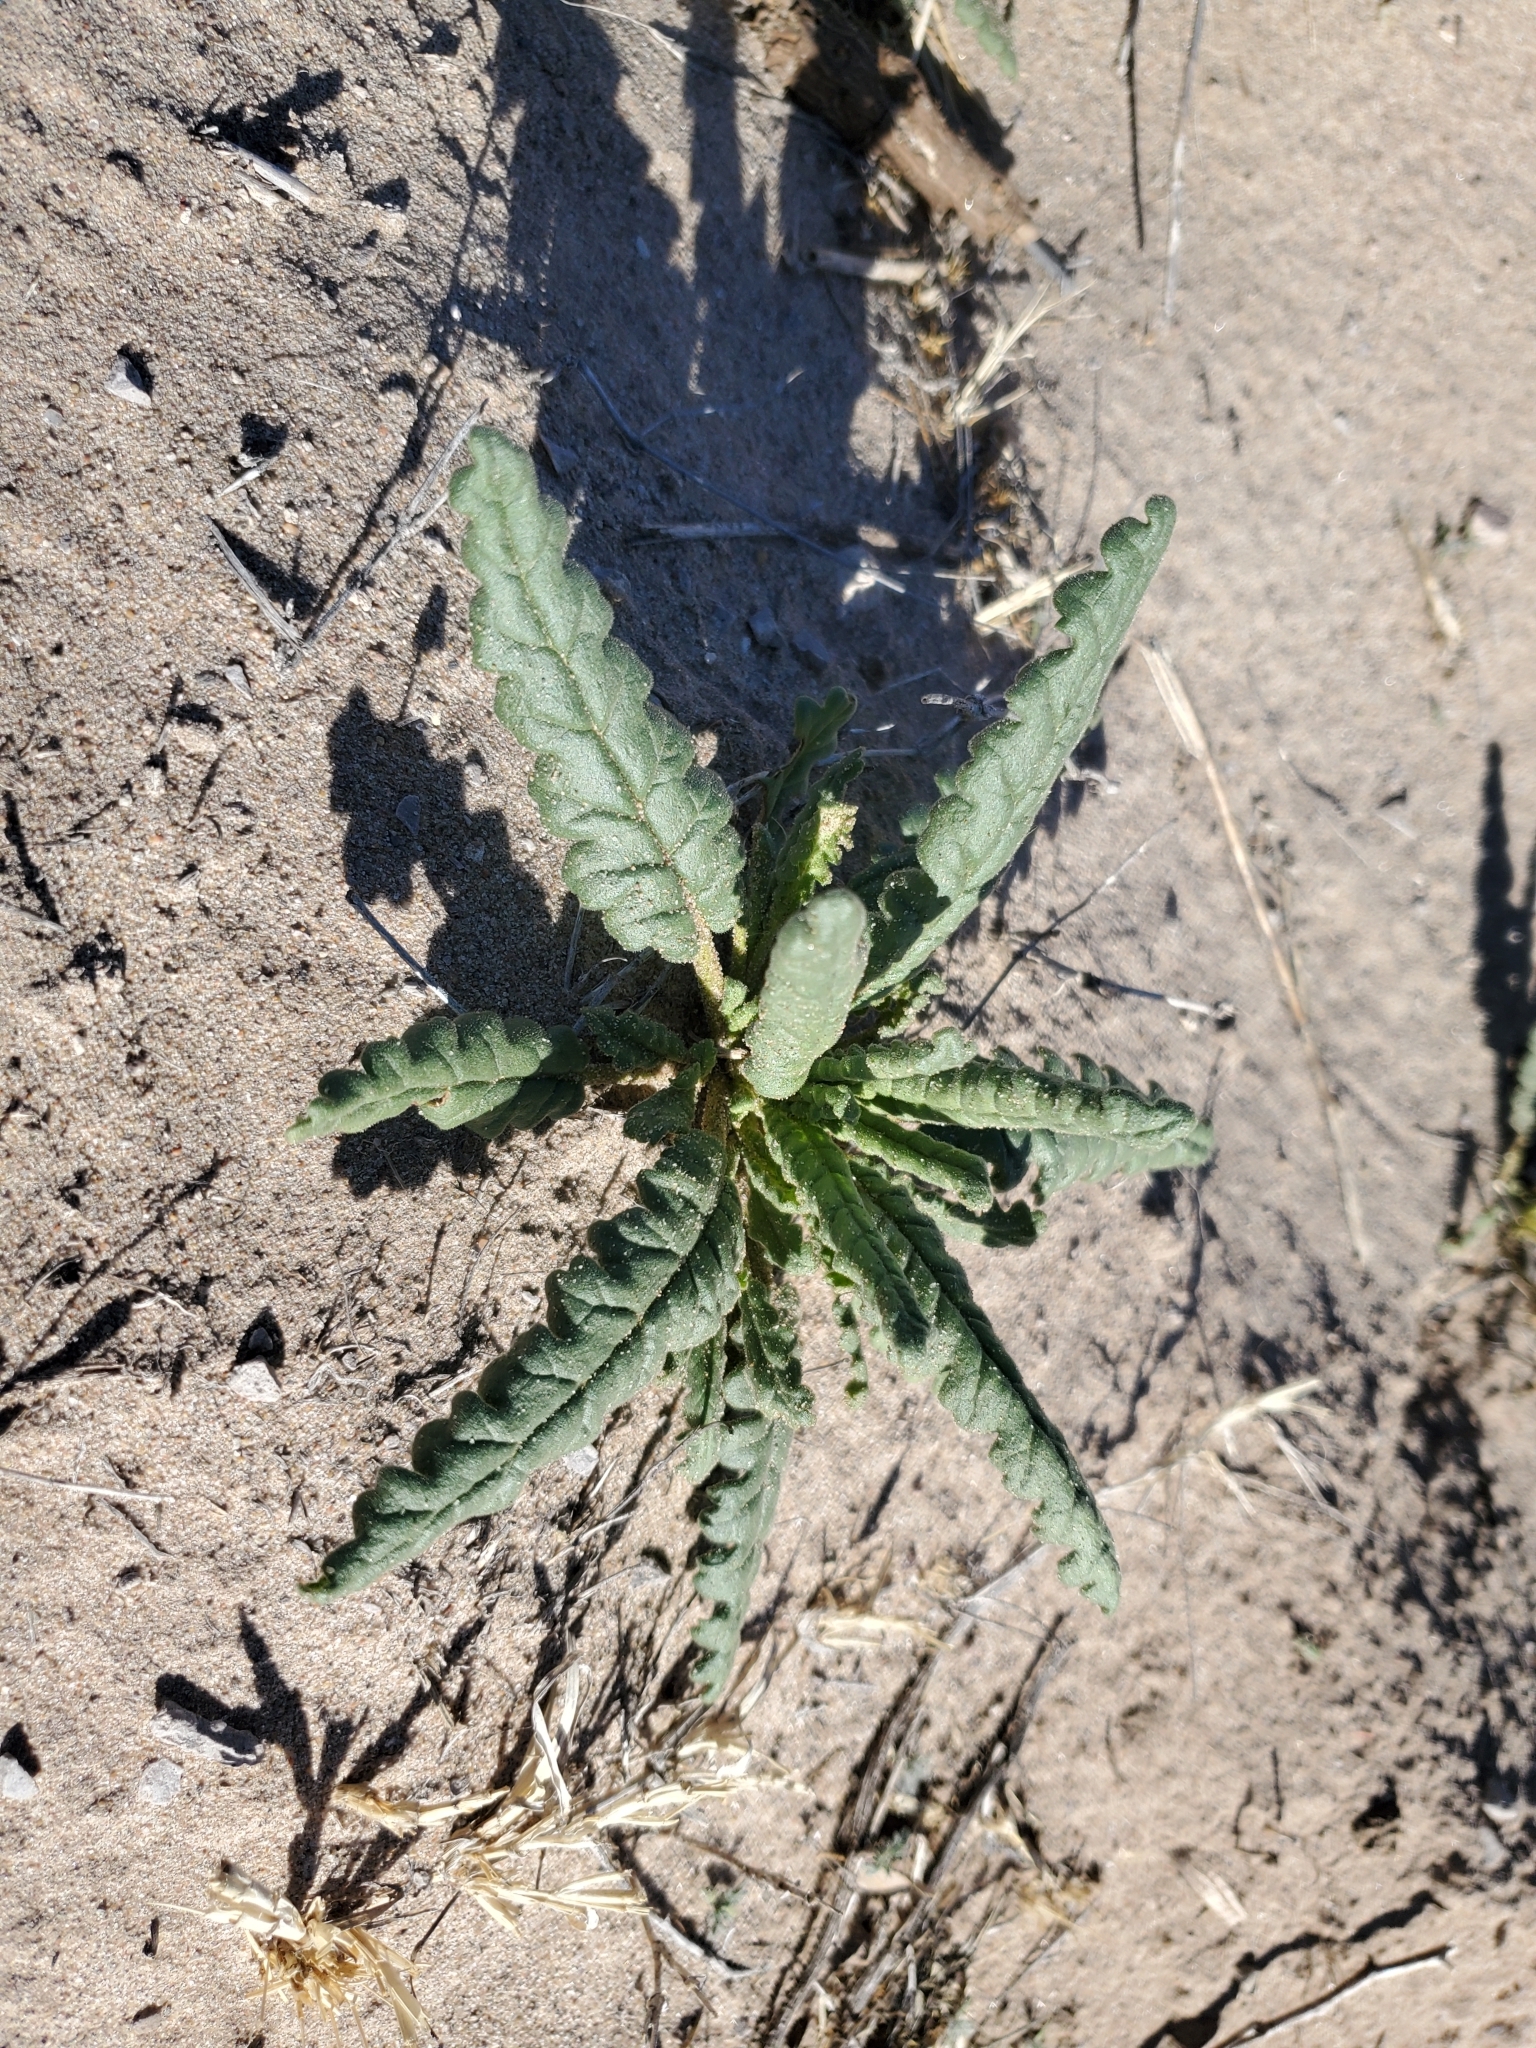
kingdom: Plantae
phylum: Tracheophyta
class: Magnoliopsida
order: Boraginales
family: Hydrophyllaceae
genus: Phacelia
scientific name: Phacelia integrifolia
